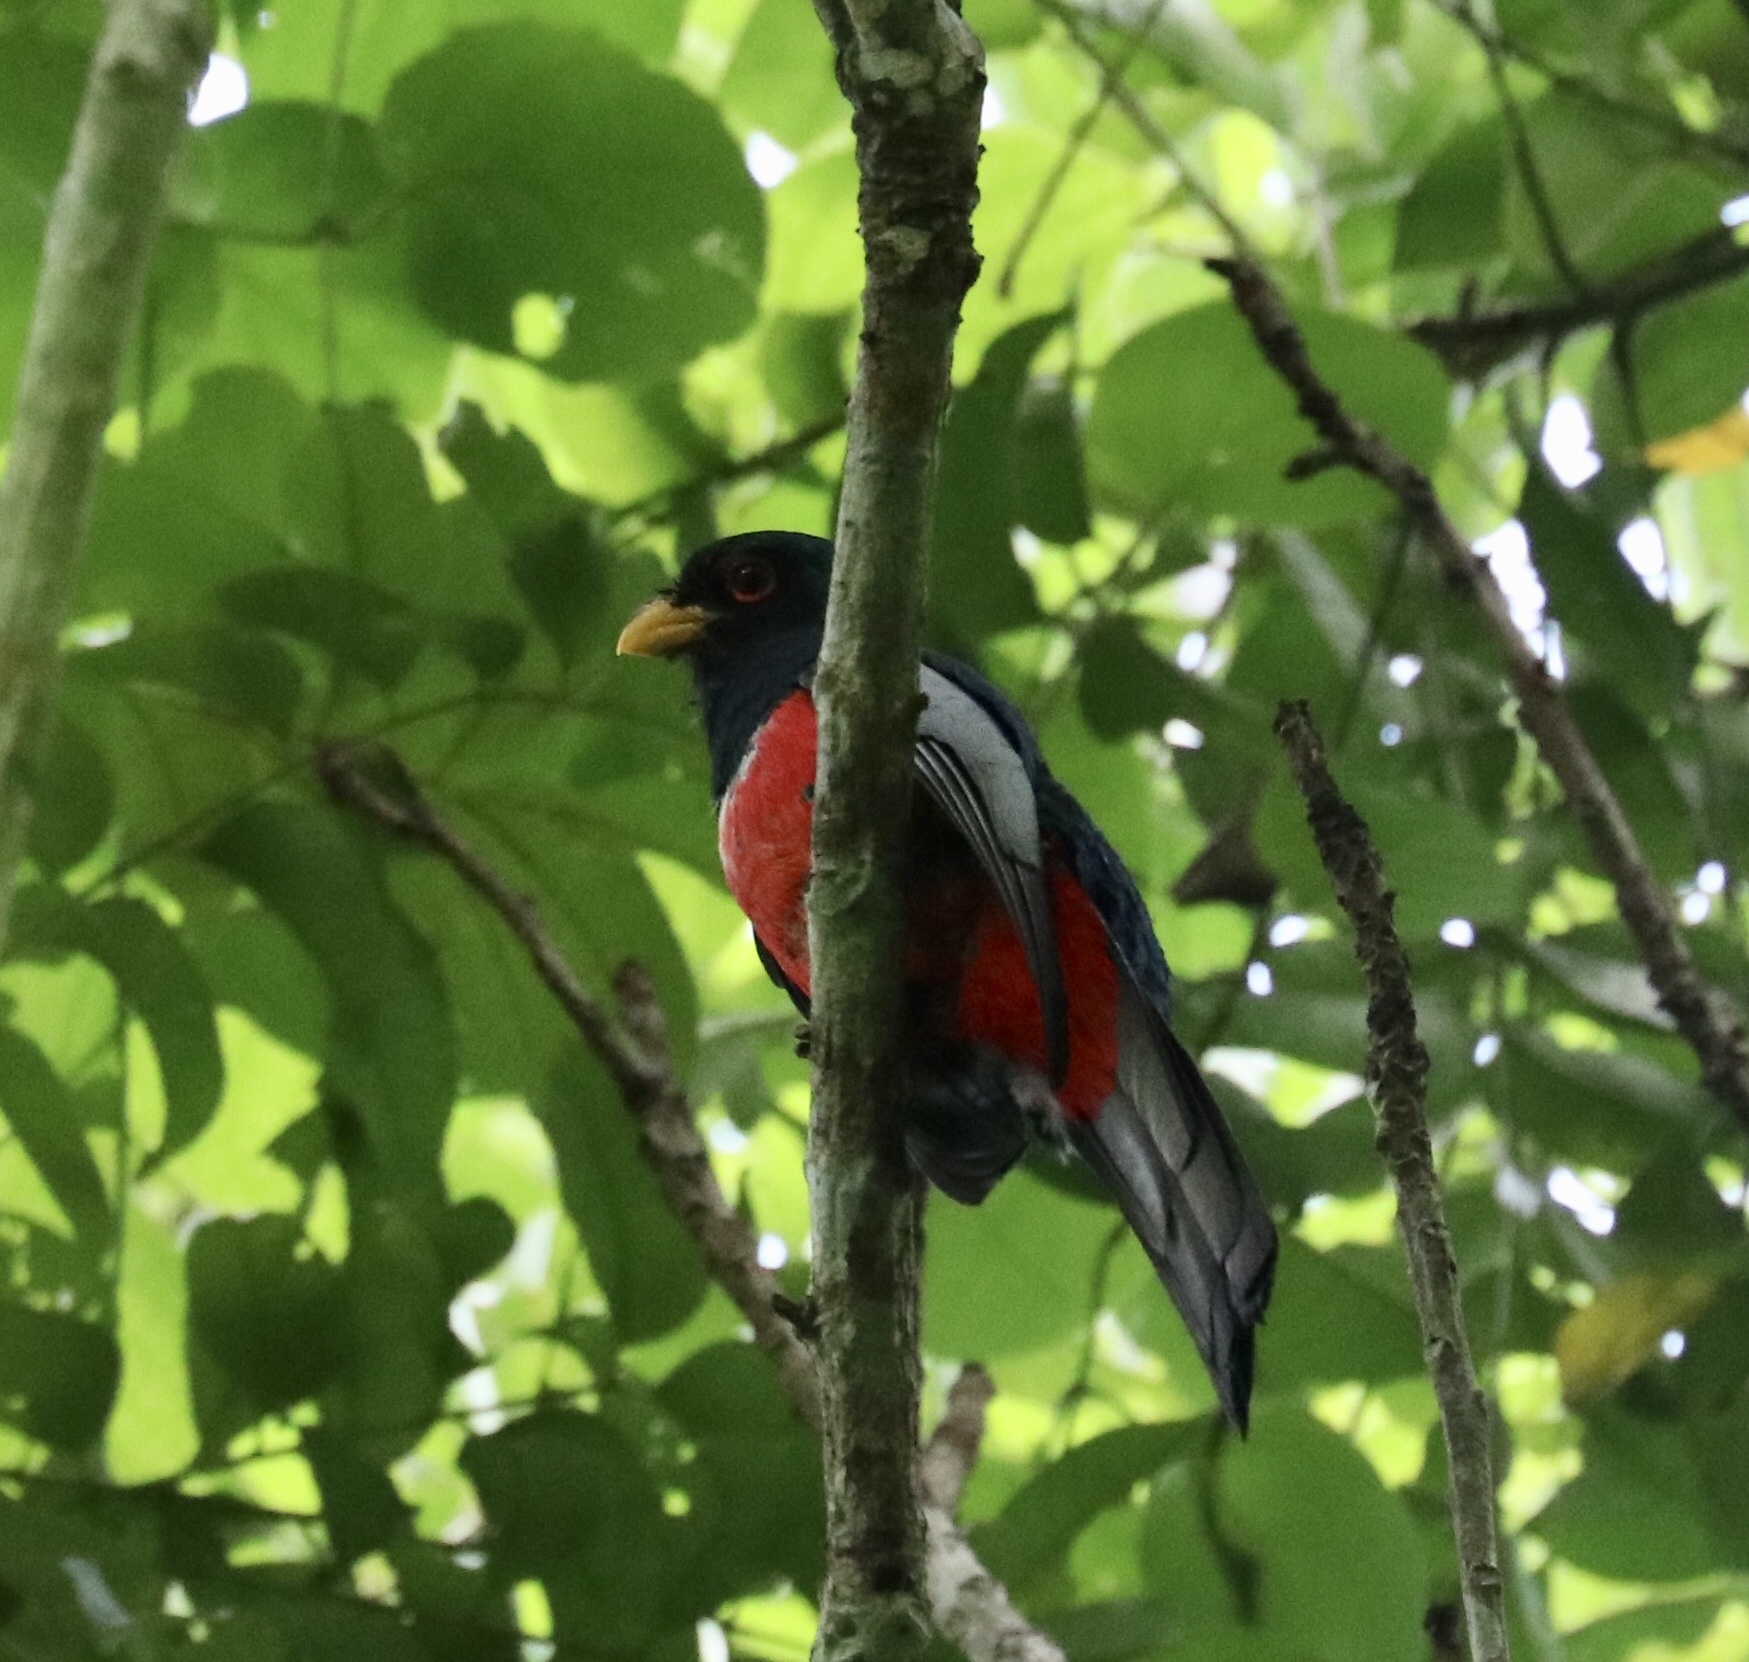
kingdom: Animalia
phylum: Chordata
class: Aves
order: Trogoniformes
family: Trogonidae
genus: Trogon
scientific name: Trogon melanurus
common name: Black-tailed trogon
